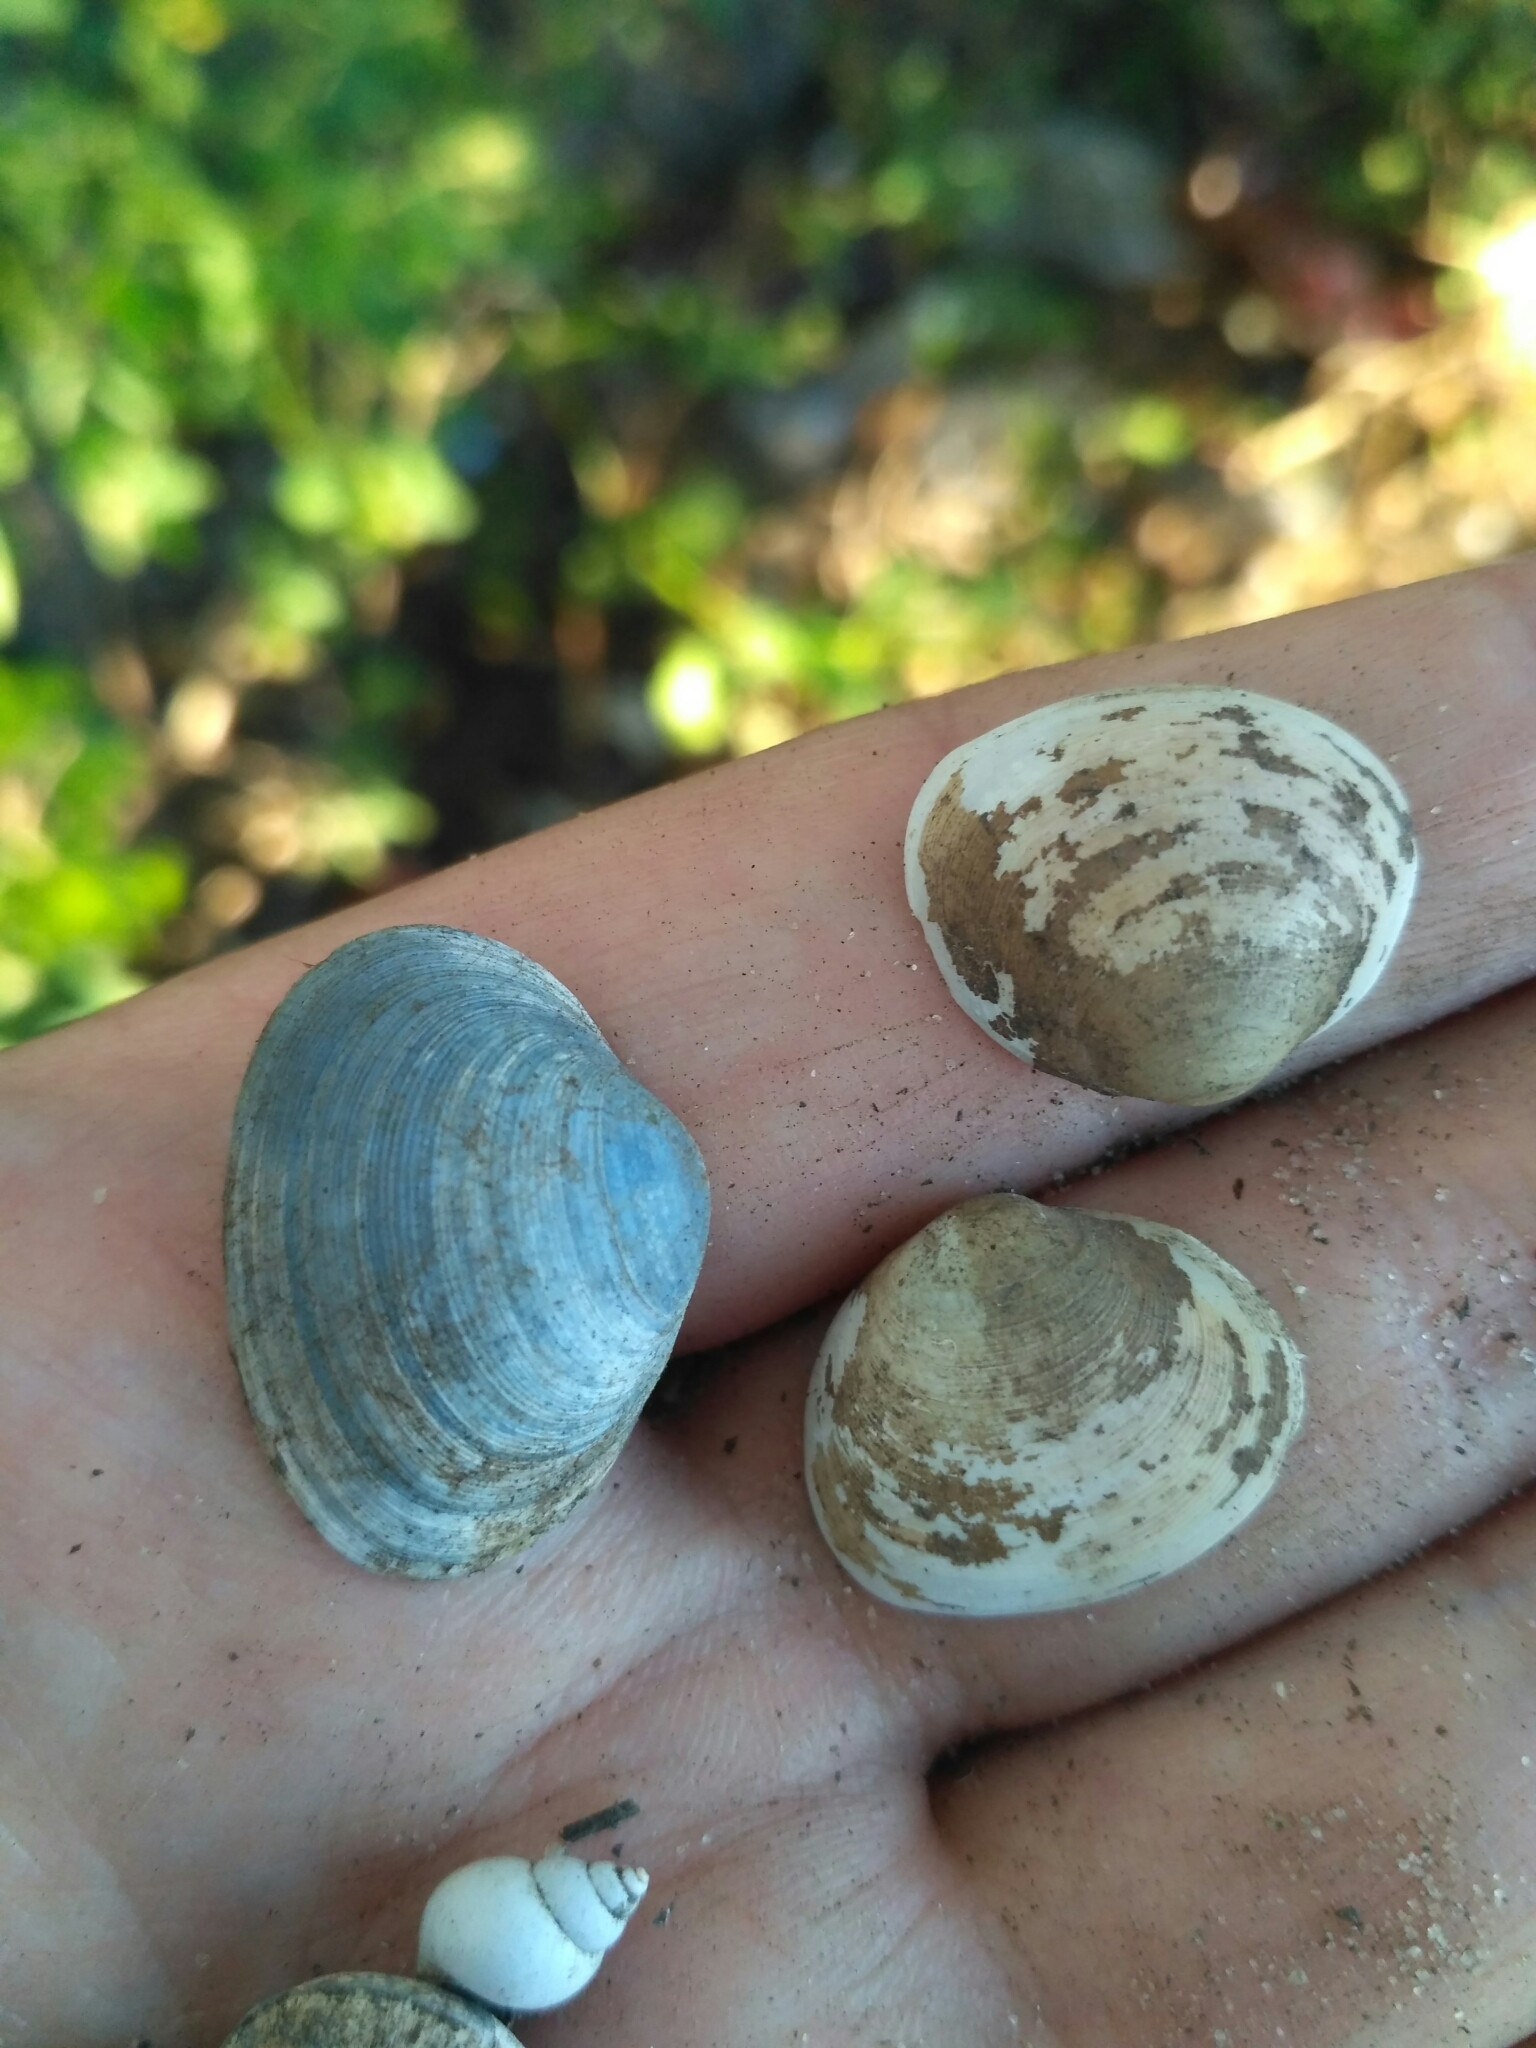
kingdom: Animalia
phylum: Mollusca
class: Bivalvia
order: Sphaeriida
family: Sphaeriidae
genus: Sphaerium
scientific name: Sphaerium rivicola
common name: Nut orb mussel
